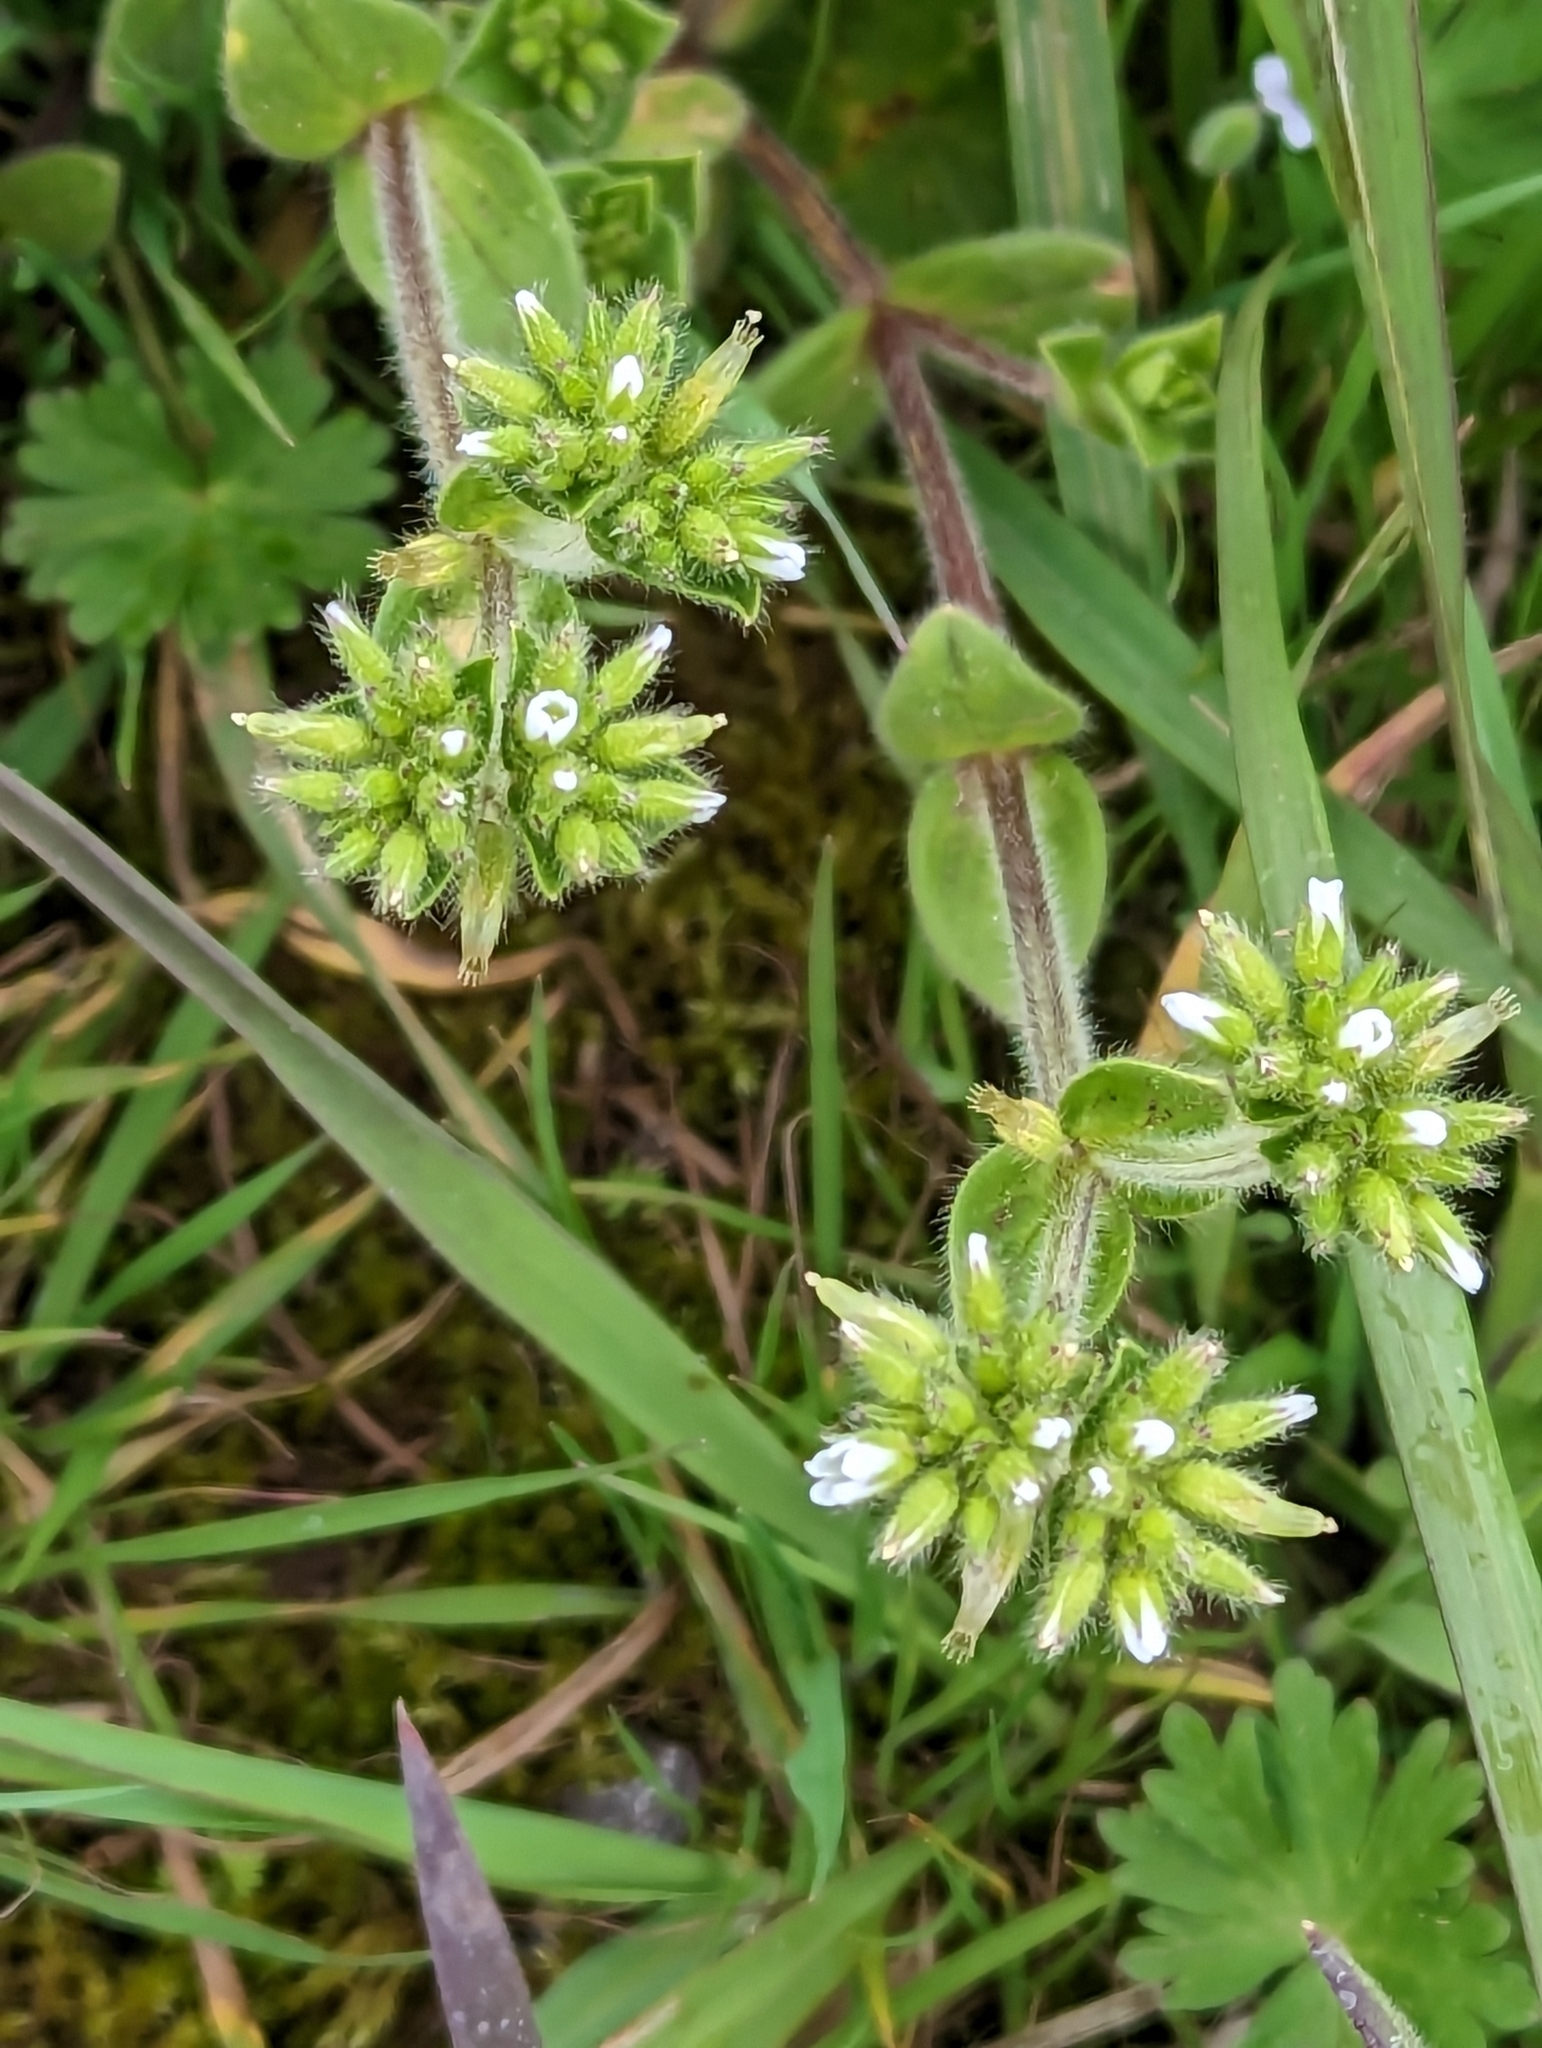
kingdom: Plantae
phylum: Tracheophyta
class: Magnoliopsida
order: Caryophyllales
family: Caryophyllaceae
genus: Cerastium
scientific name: Cerastium glomeratum
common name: Sticky chickweed
